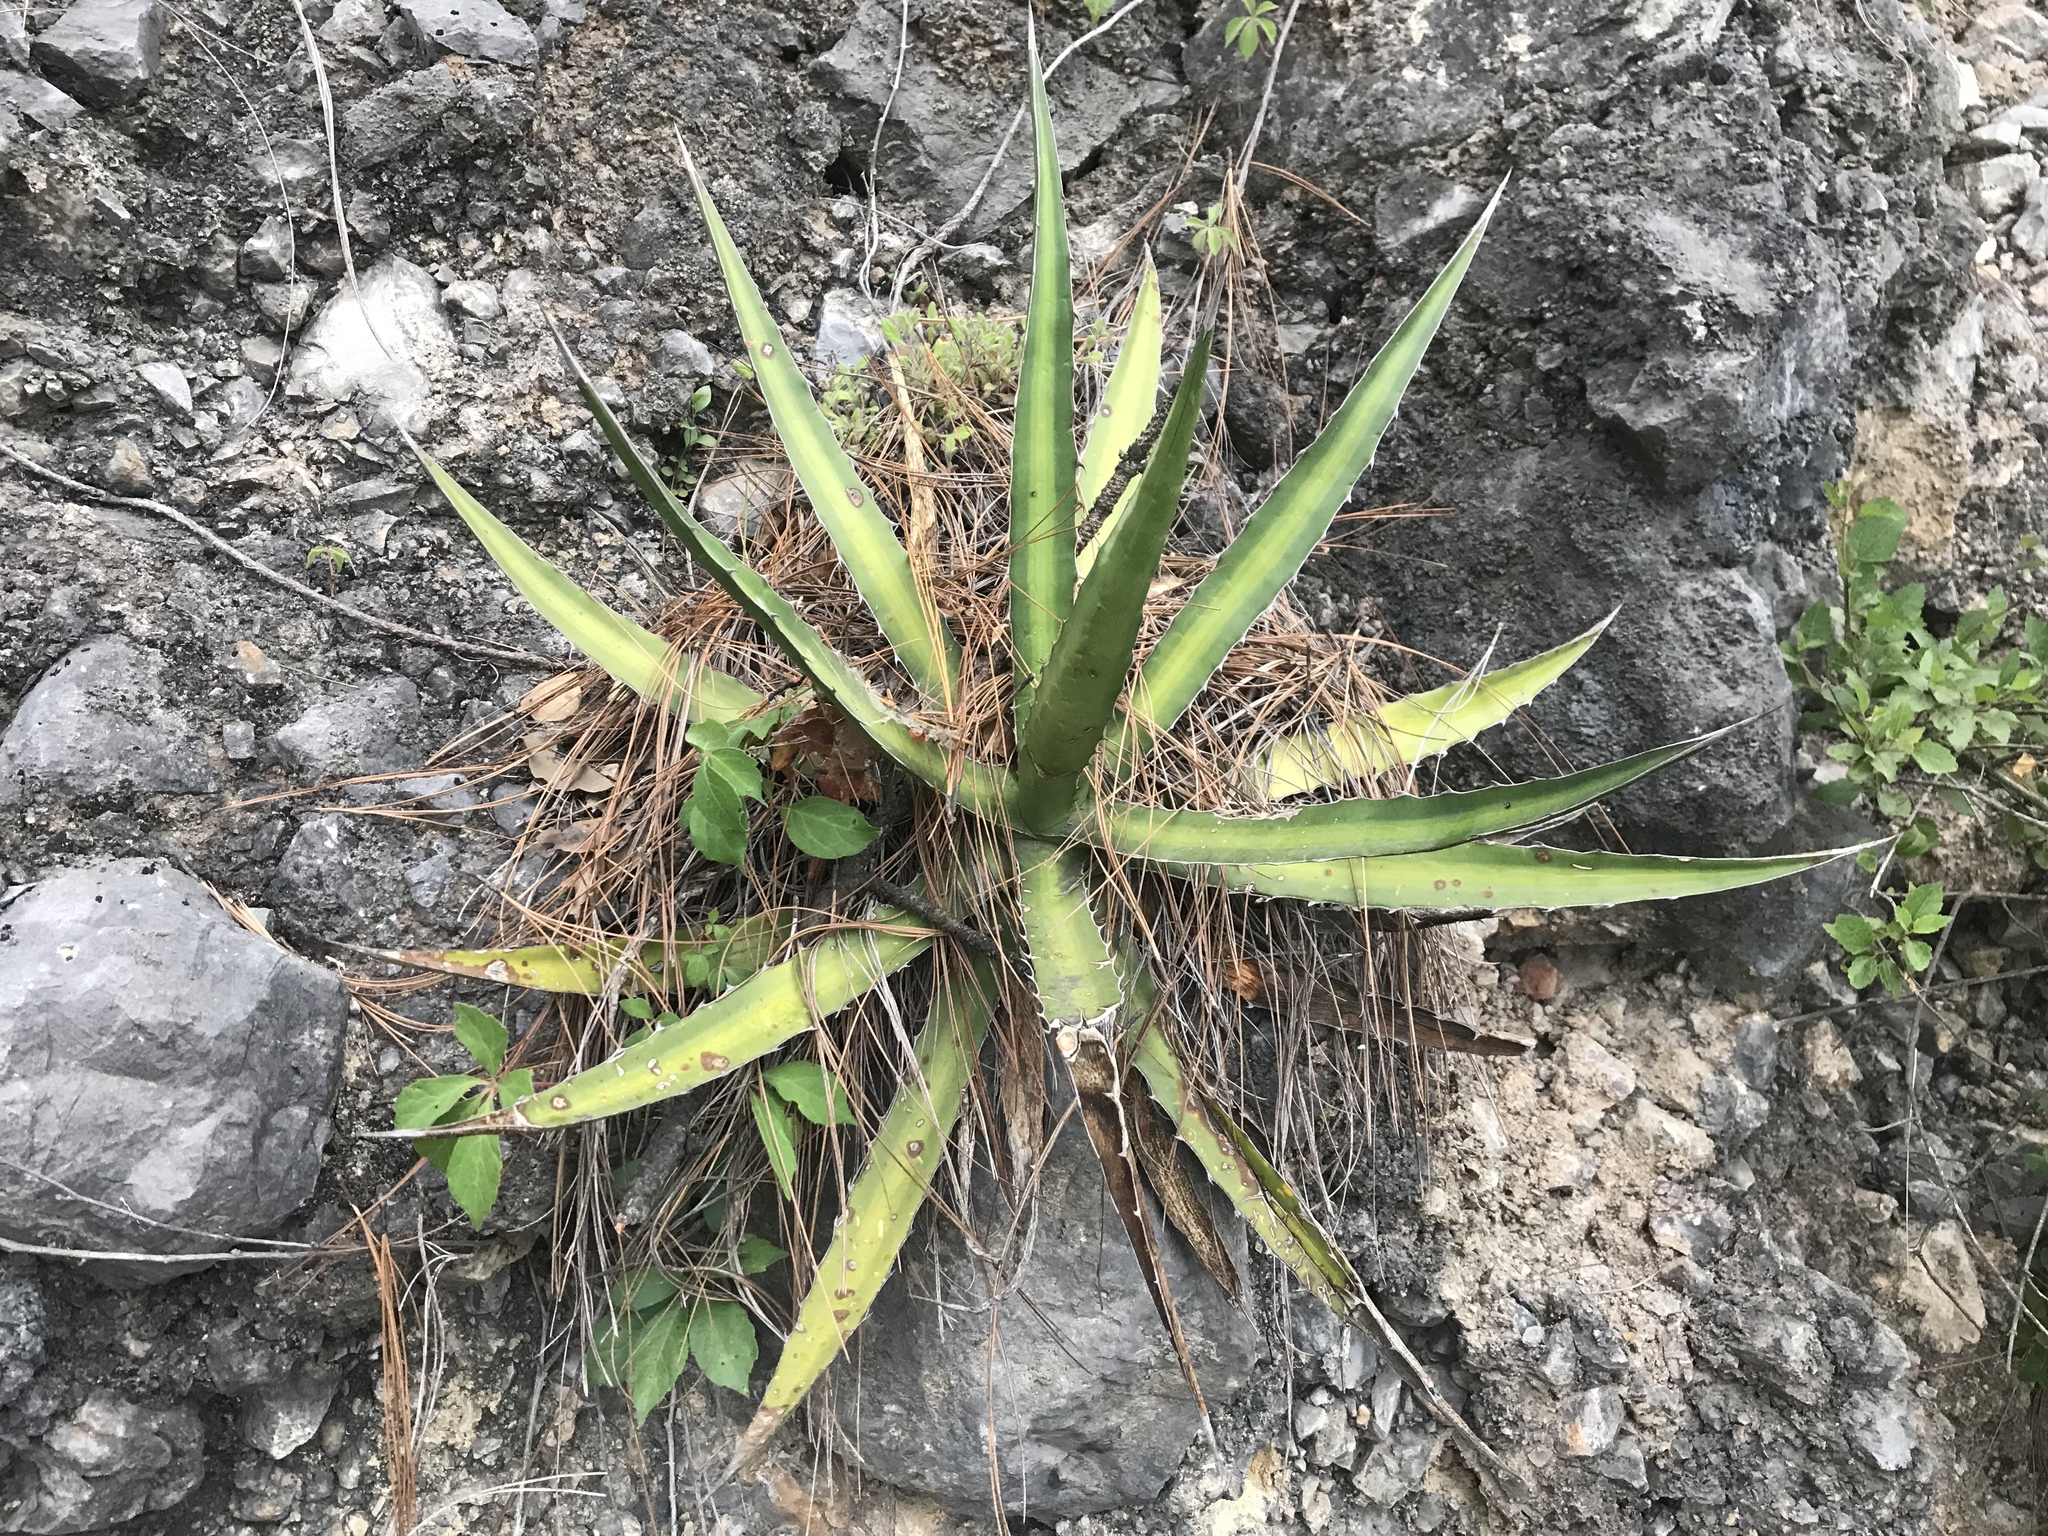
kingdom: Plantae
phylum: Tracheophyta
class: Liliopsida
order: Asparagales
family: Asparagaceae
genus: Agave
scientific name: Agave lechuguilla
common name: Lecheguilla agave
